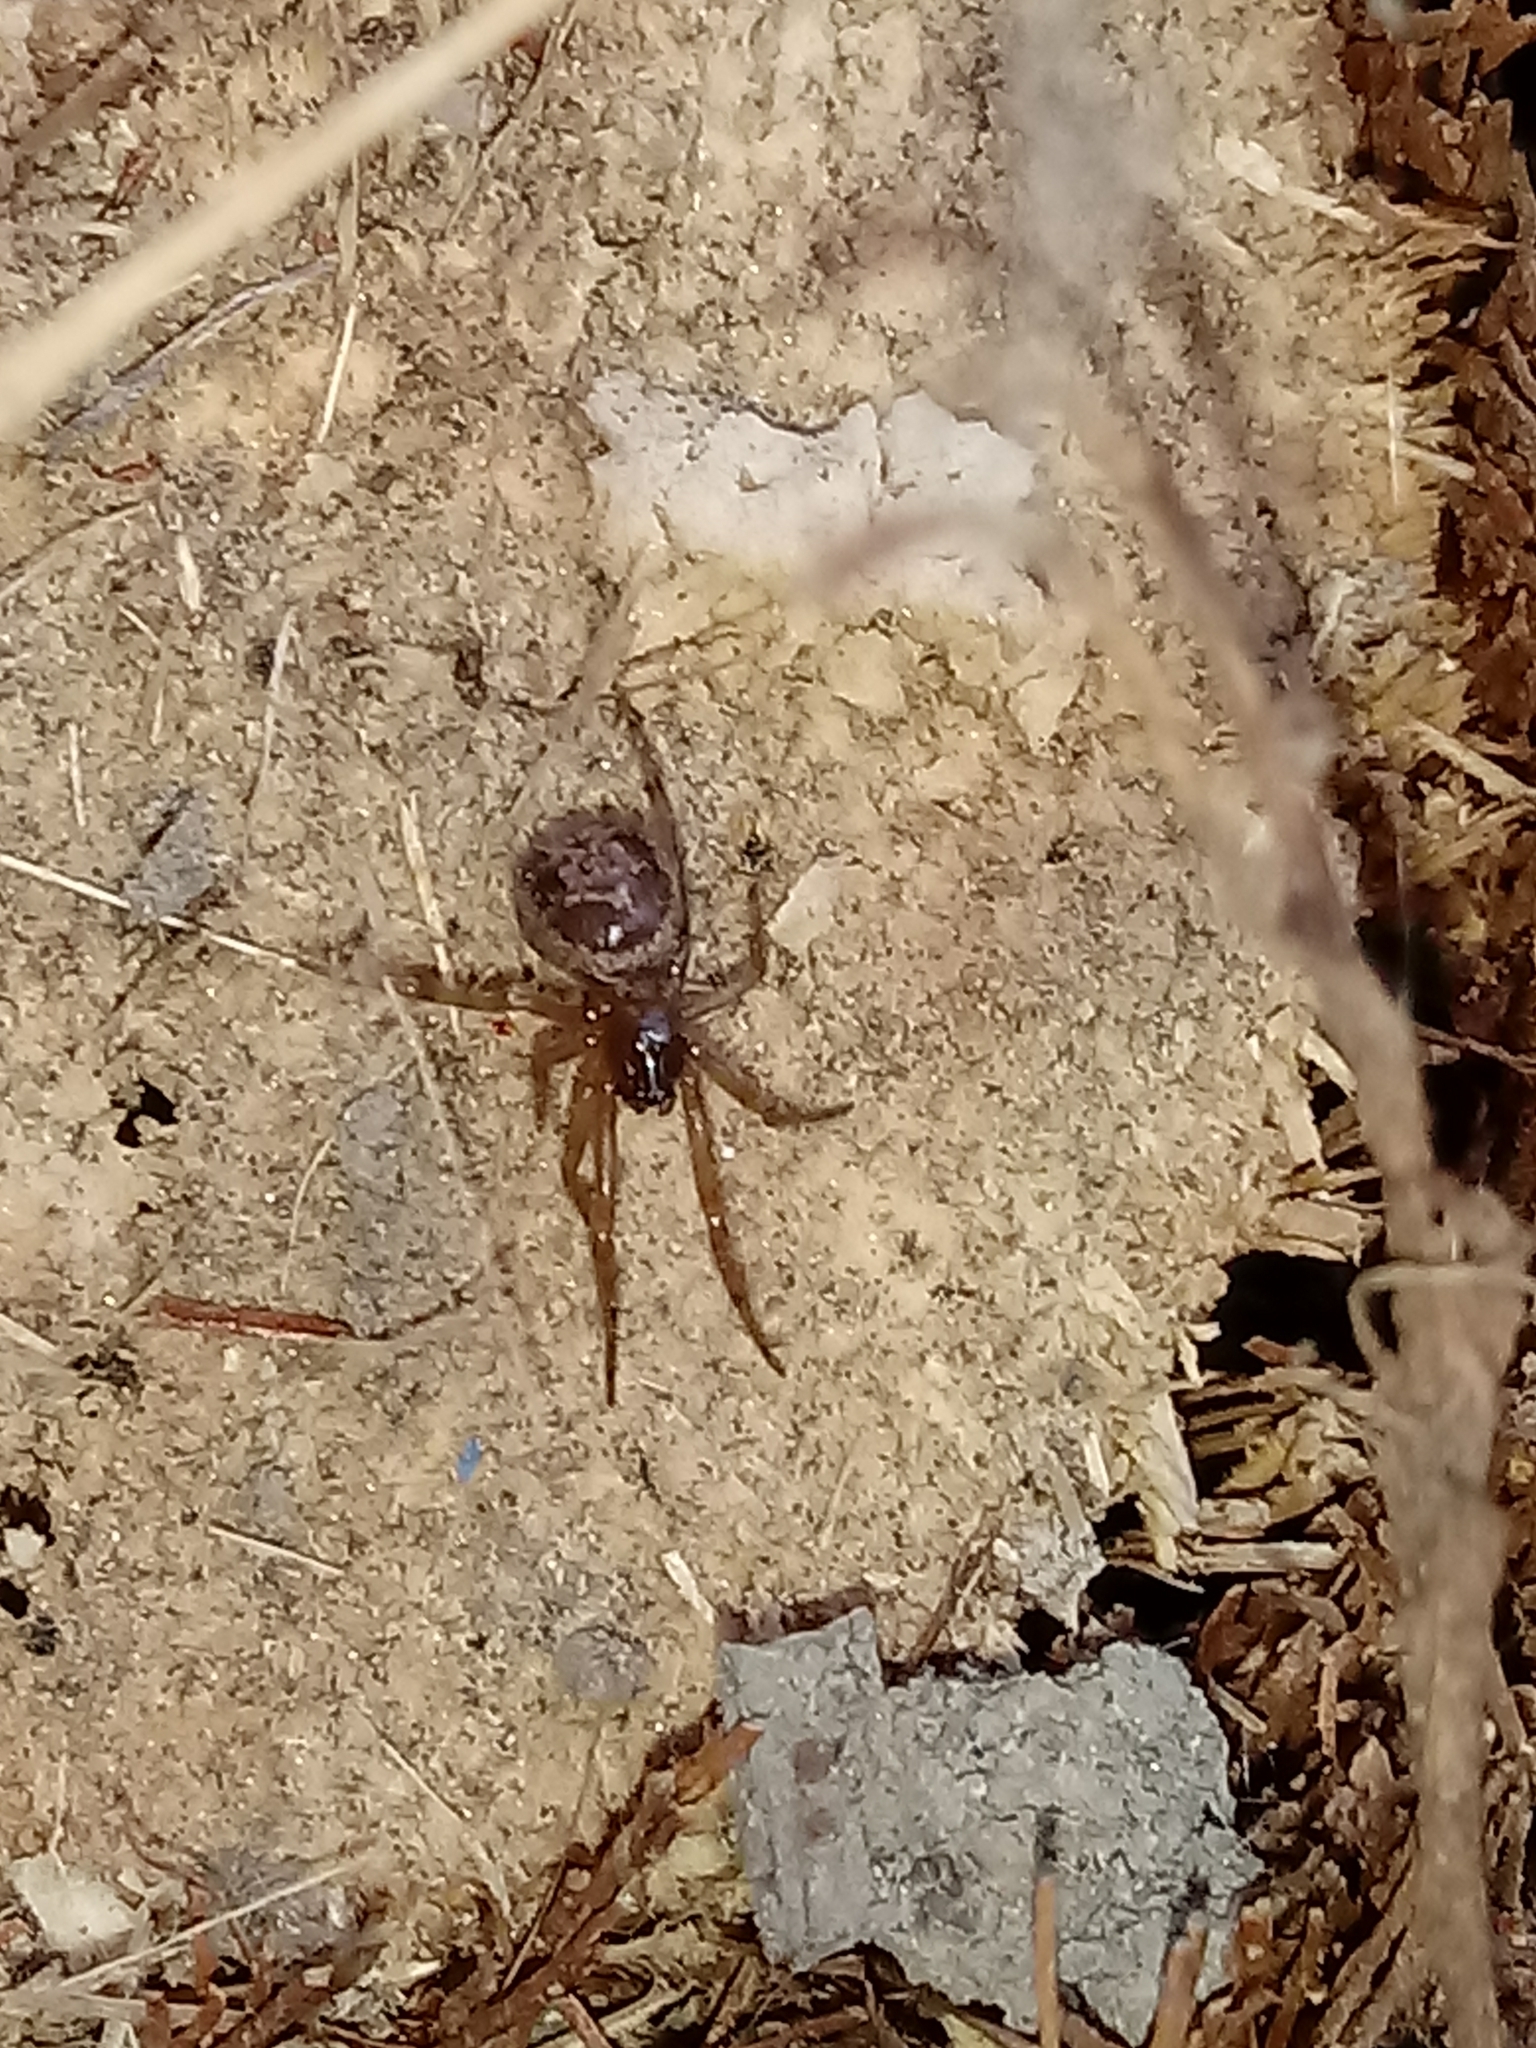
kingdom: Animalia
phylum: Arthropoda
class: Arachnida
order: Araneae
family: Theridiidae
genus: Steatoda
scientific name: Steatoda nobilis
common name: Cobweb weaver
